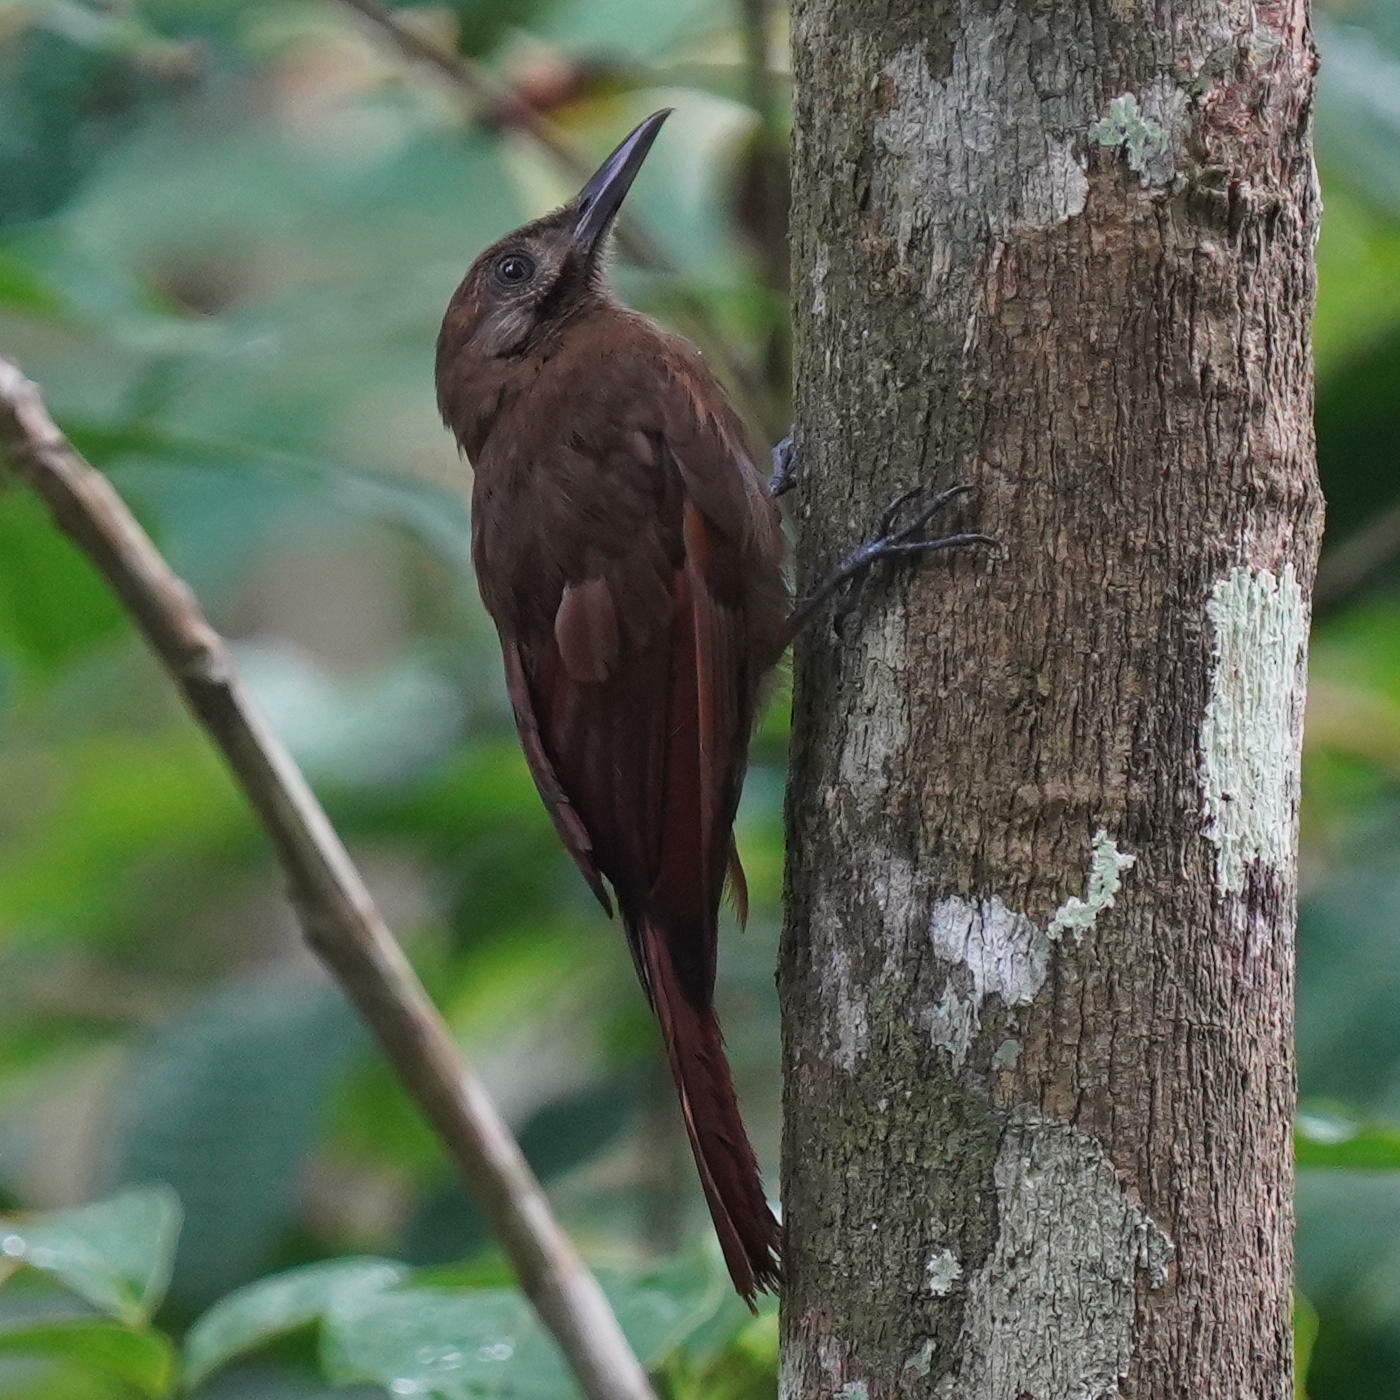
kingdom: Animalia
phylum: Chordata
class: Aves
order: Passeriformes
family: Furnariidae
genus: Dendrocincla
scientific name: Dendrocincla fuliginosa
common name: Plain-brown woodcreeper
